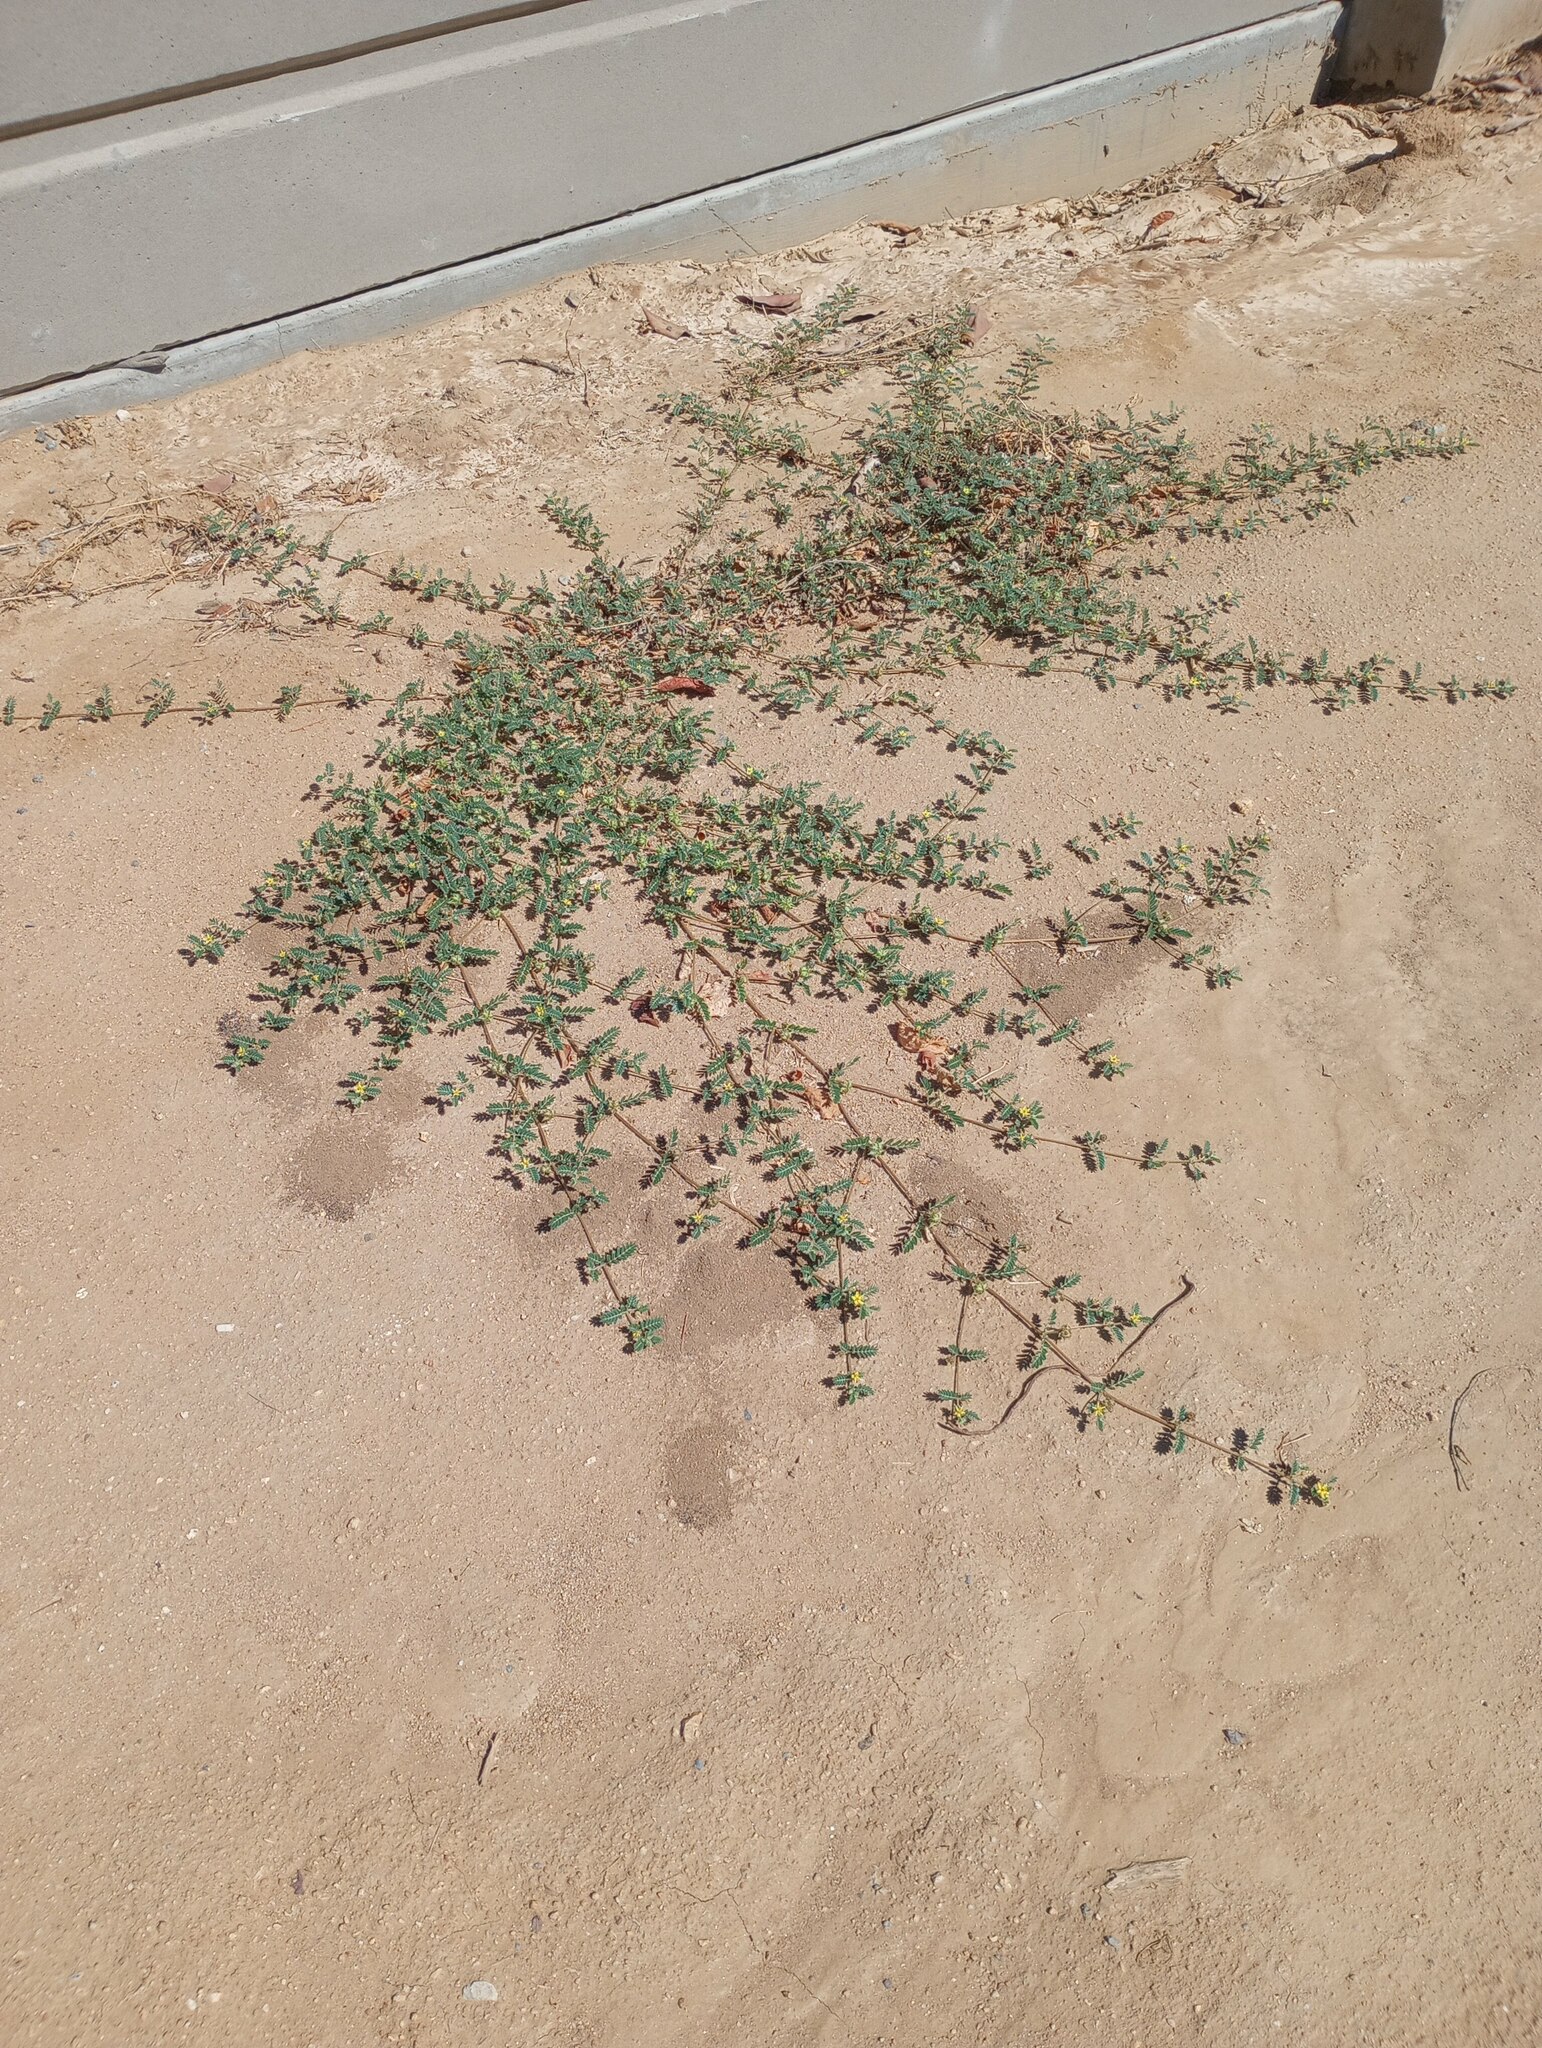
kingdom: Plantae
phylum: Tracheophyta
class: Magnoliopsida
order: Zygophyllales
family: Zygophyllaceae
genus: Tribulus
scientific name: Tribulus terrestris
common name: Puncturevine
